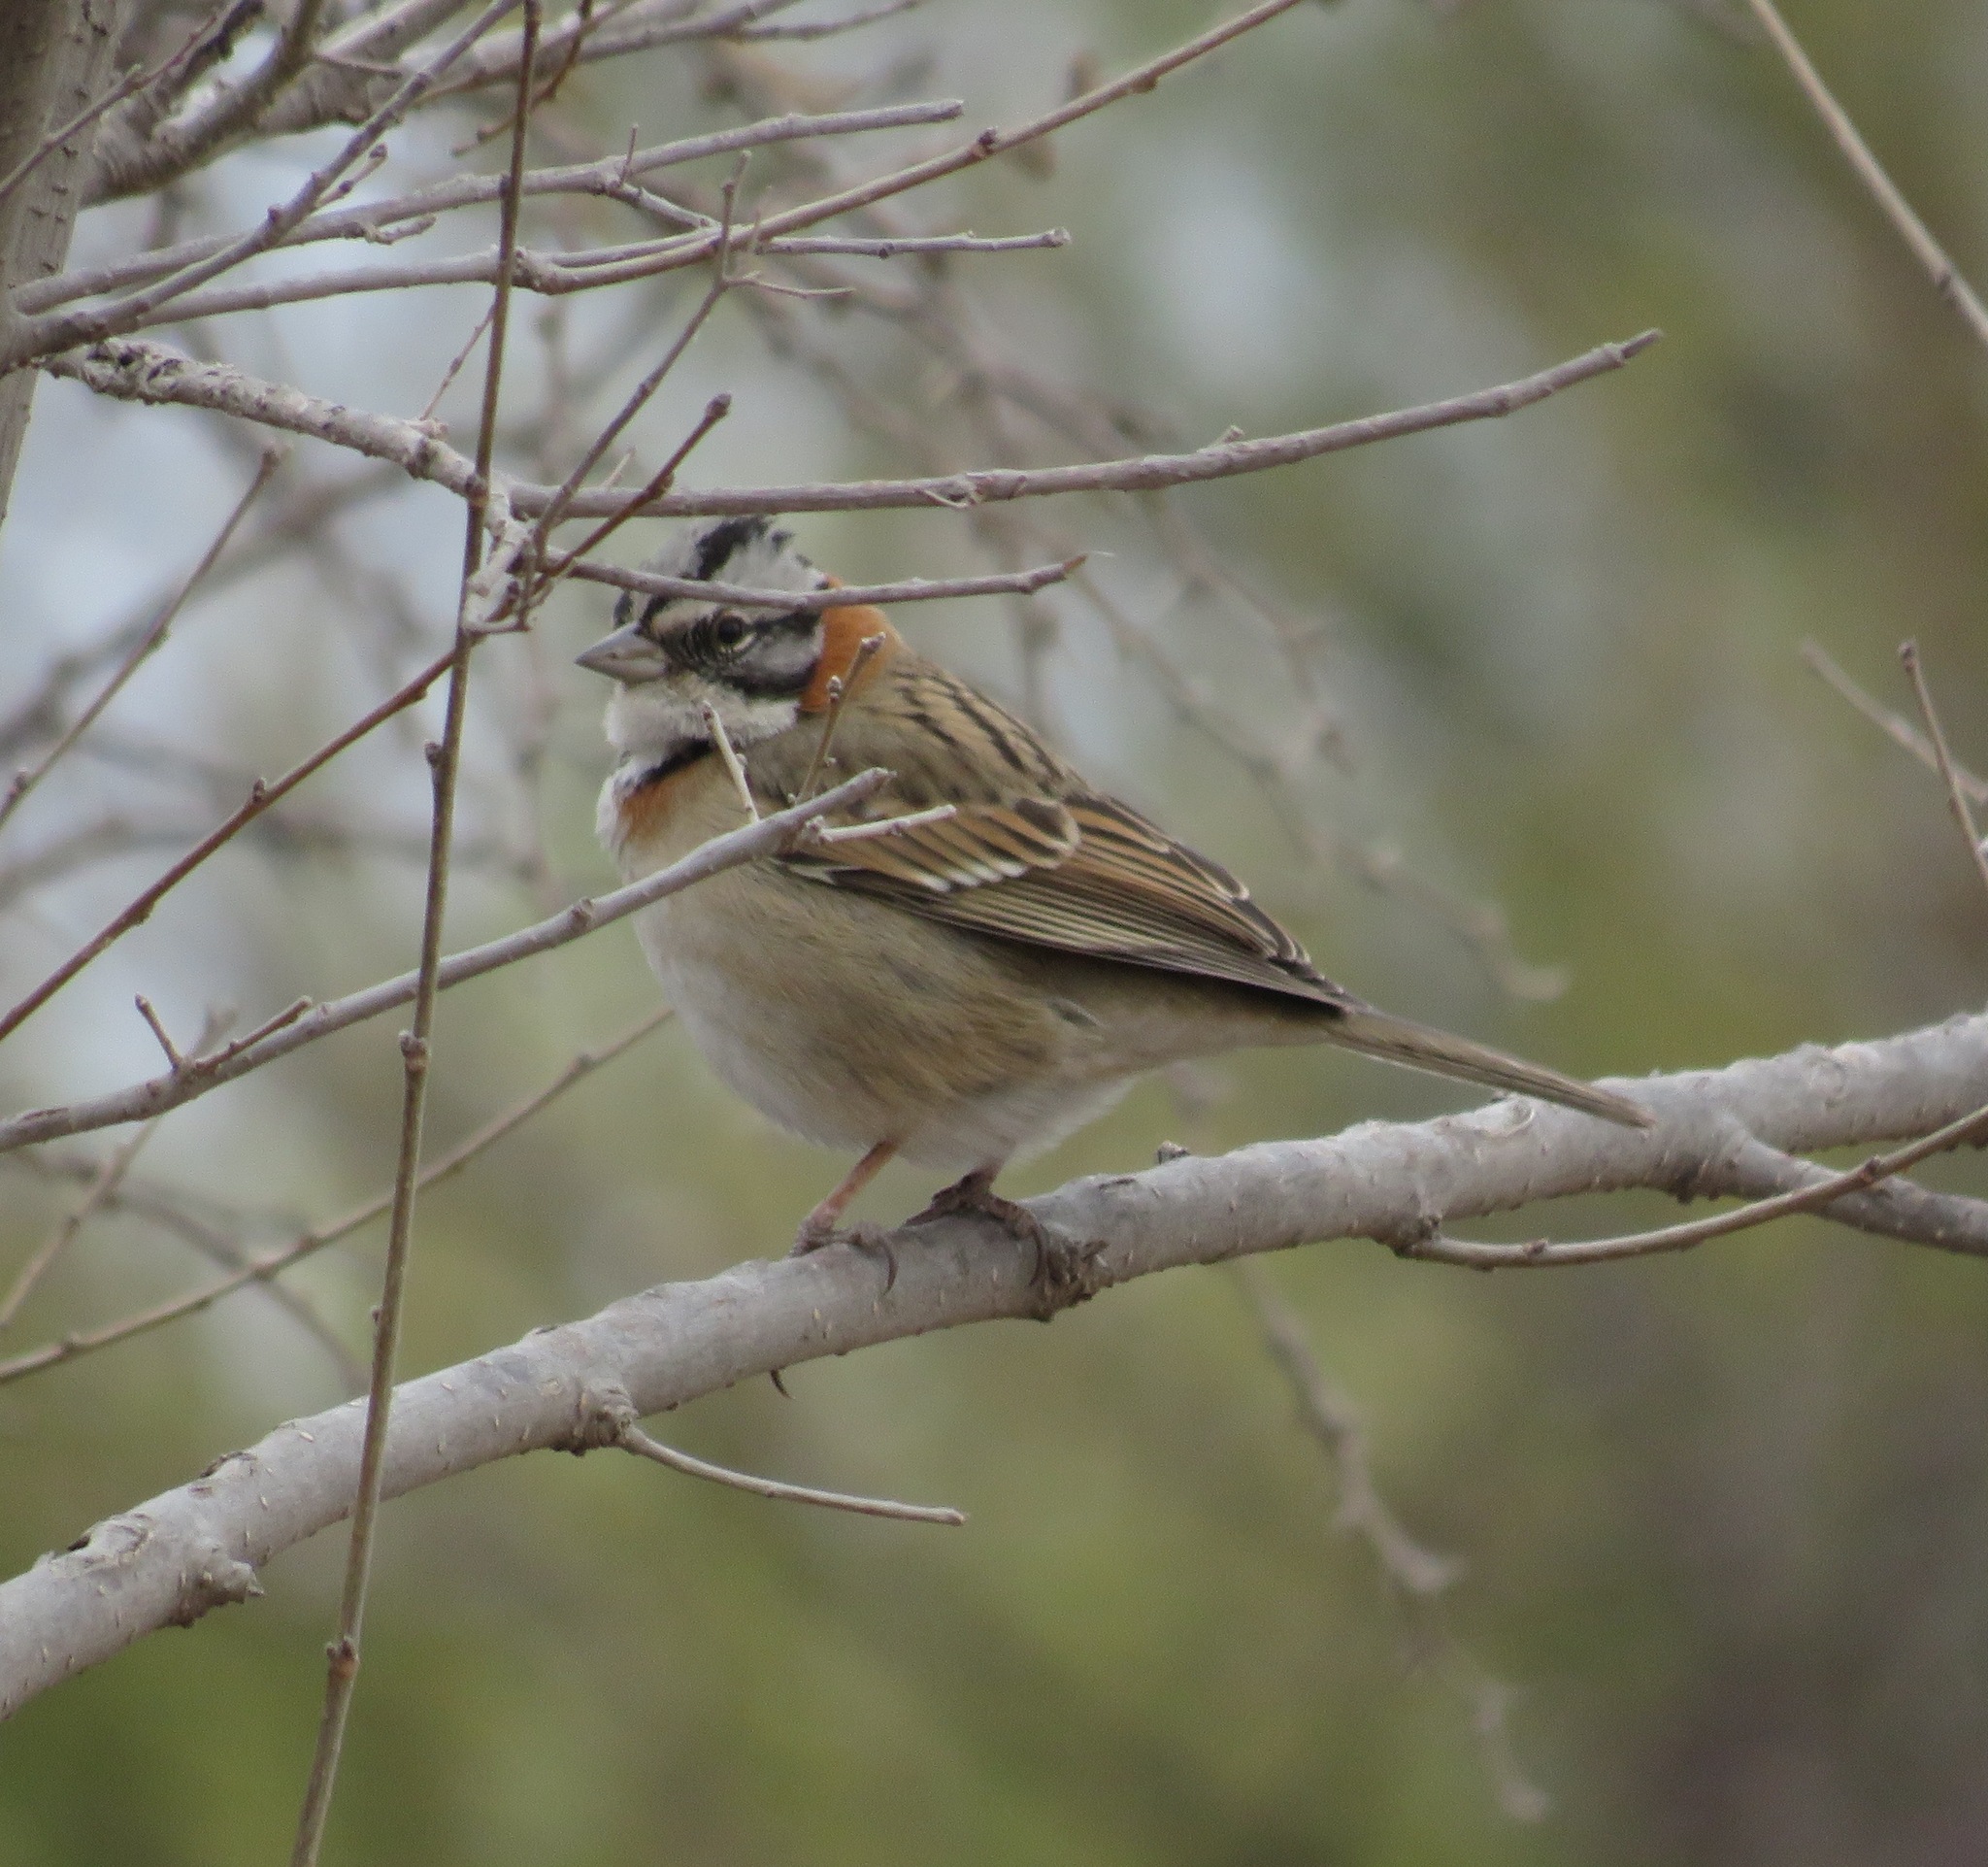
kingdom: Animalia
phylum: Chordata
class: Aves
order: Passeriformes
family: Passerellidae
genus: Zonotrichia
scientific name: Zonotrichia capensis
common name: Rufous-collared sparrow
